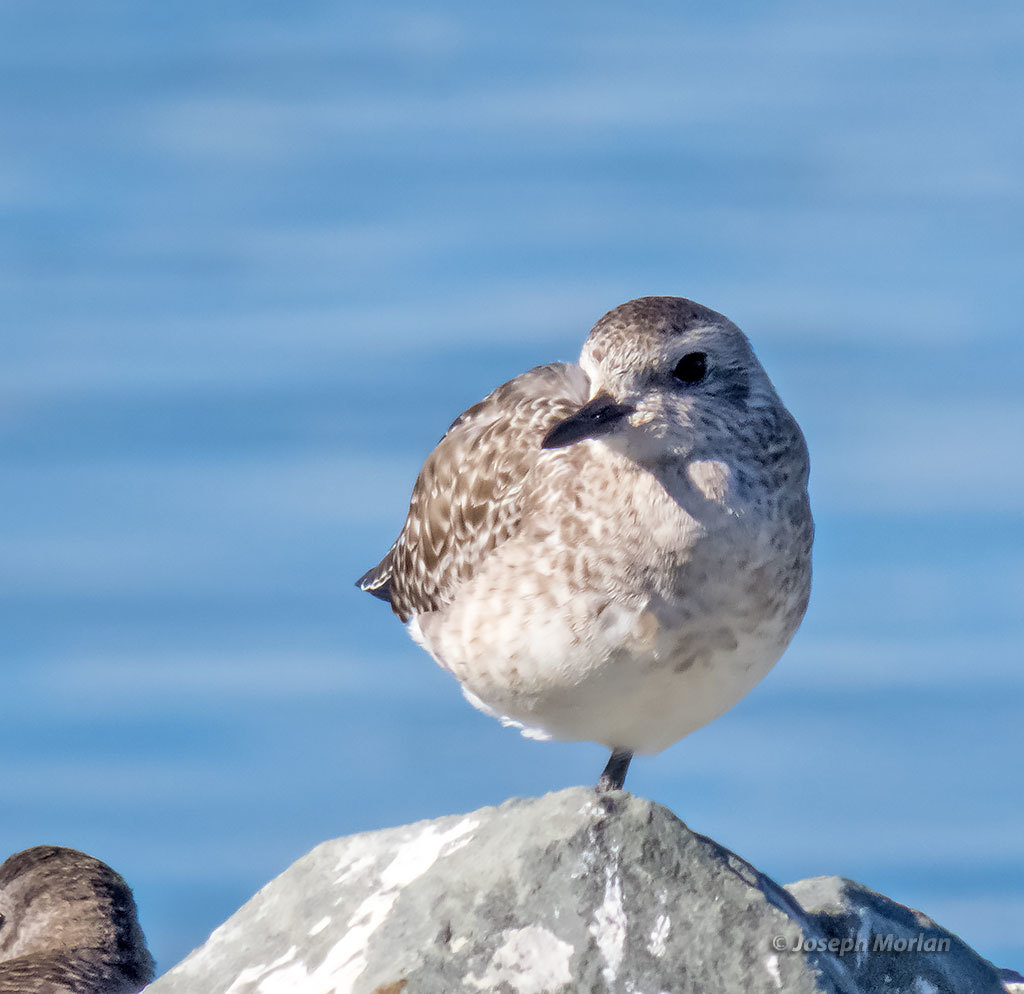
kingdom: Animalia
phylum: Chordata
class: Aves
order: Charadriiformes
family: Charadriidae
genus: Pluvialis
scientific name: Pluvialis squatarola
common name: Grey plover
